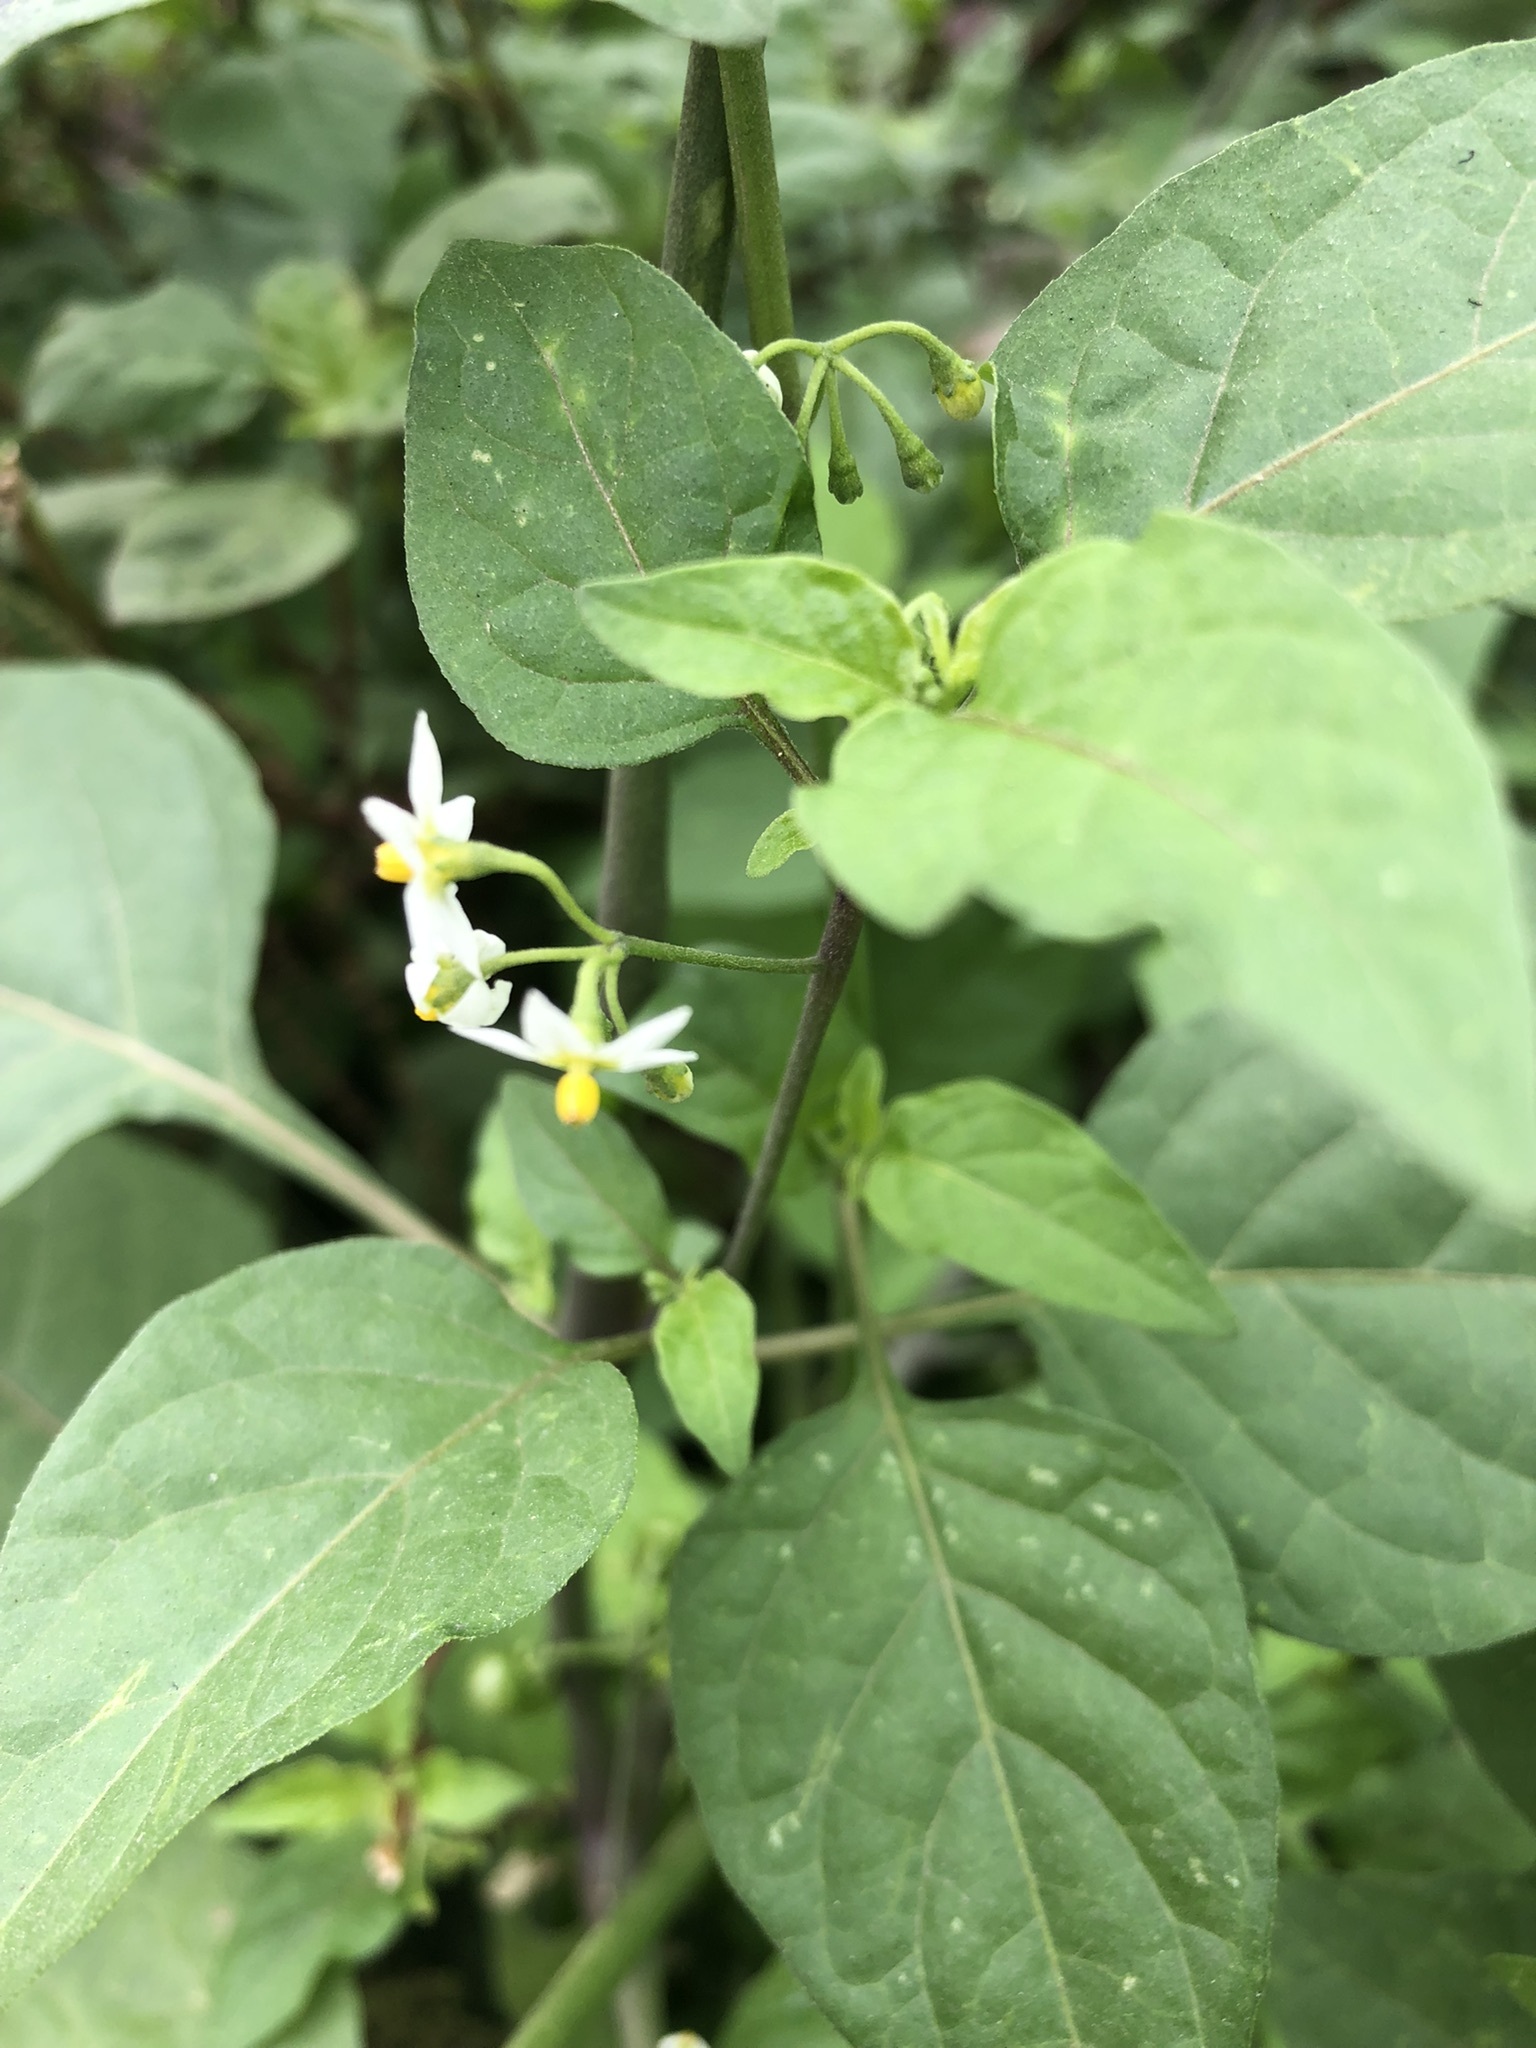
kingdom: Plantae
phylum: Tracheophyta
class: Magnoliopsida
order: Solanales
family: Solanaceae
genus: Solanum
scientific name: Solanum americanum
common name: American black nightshade
